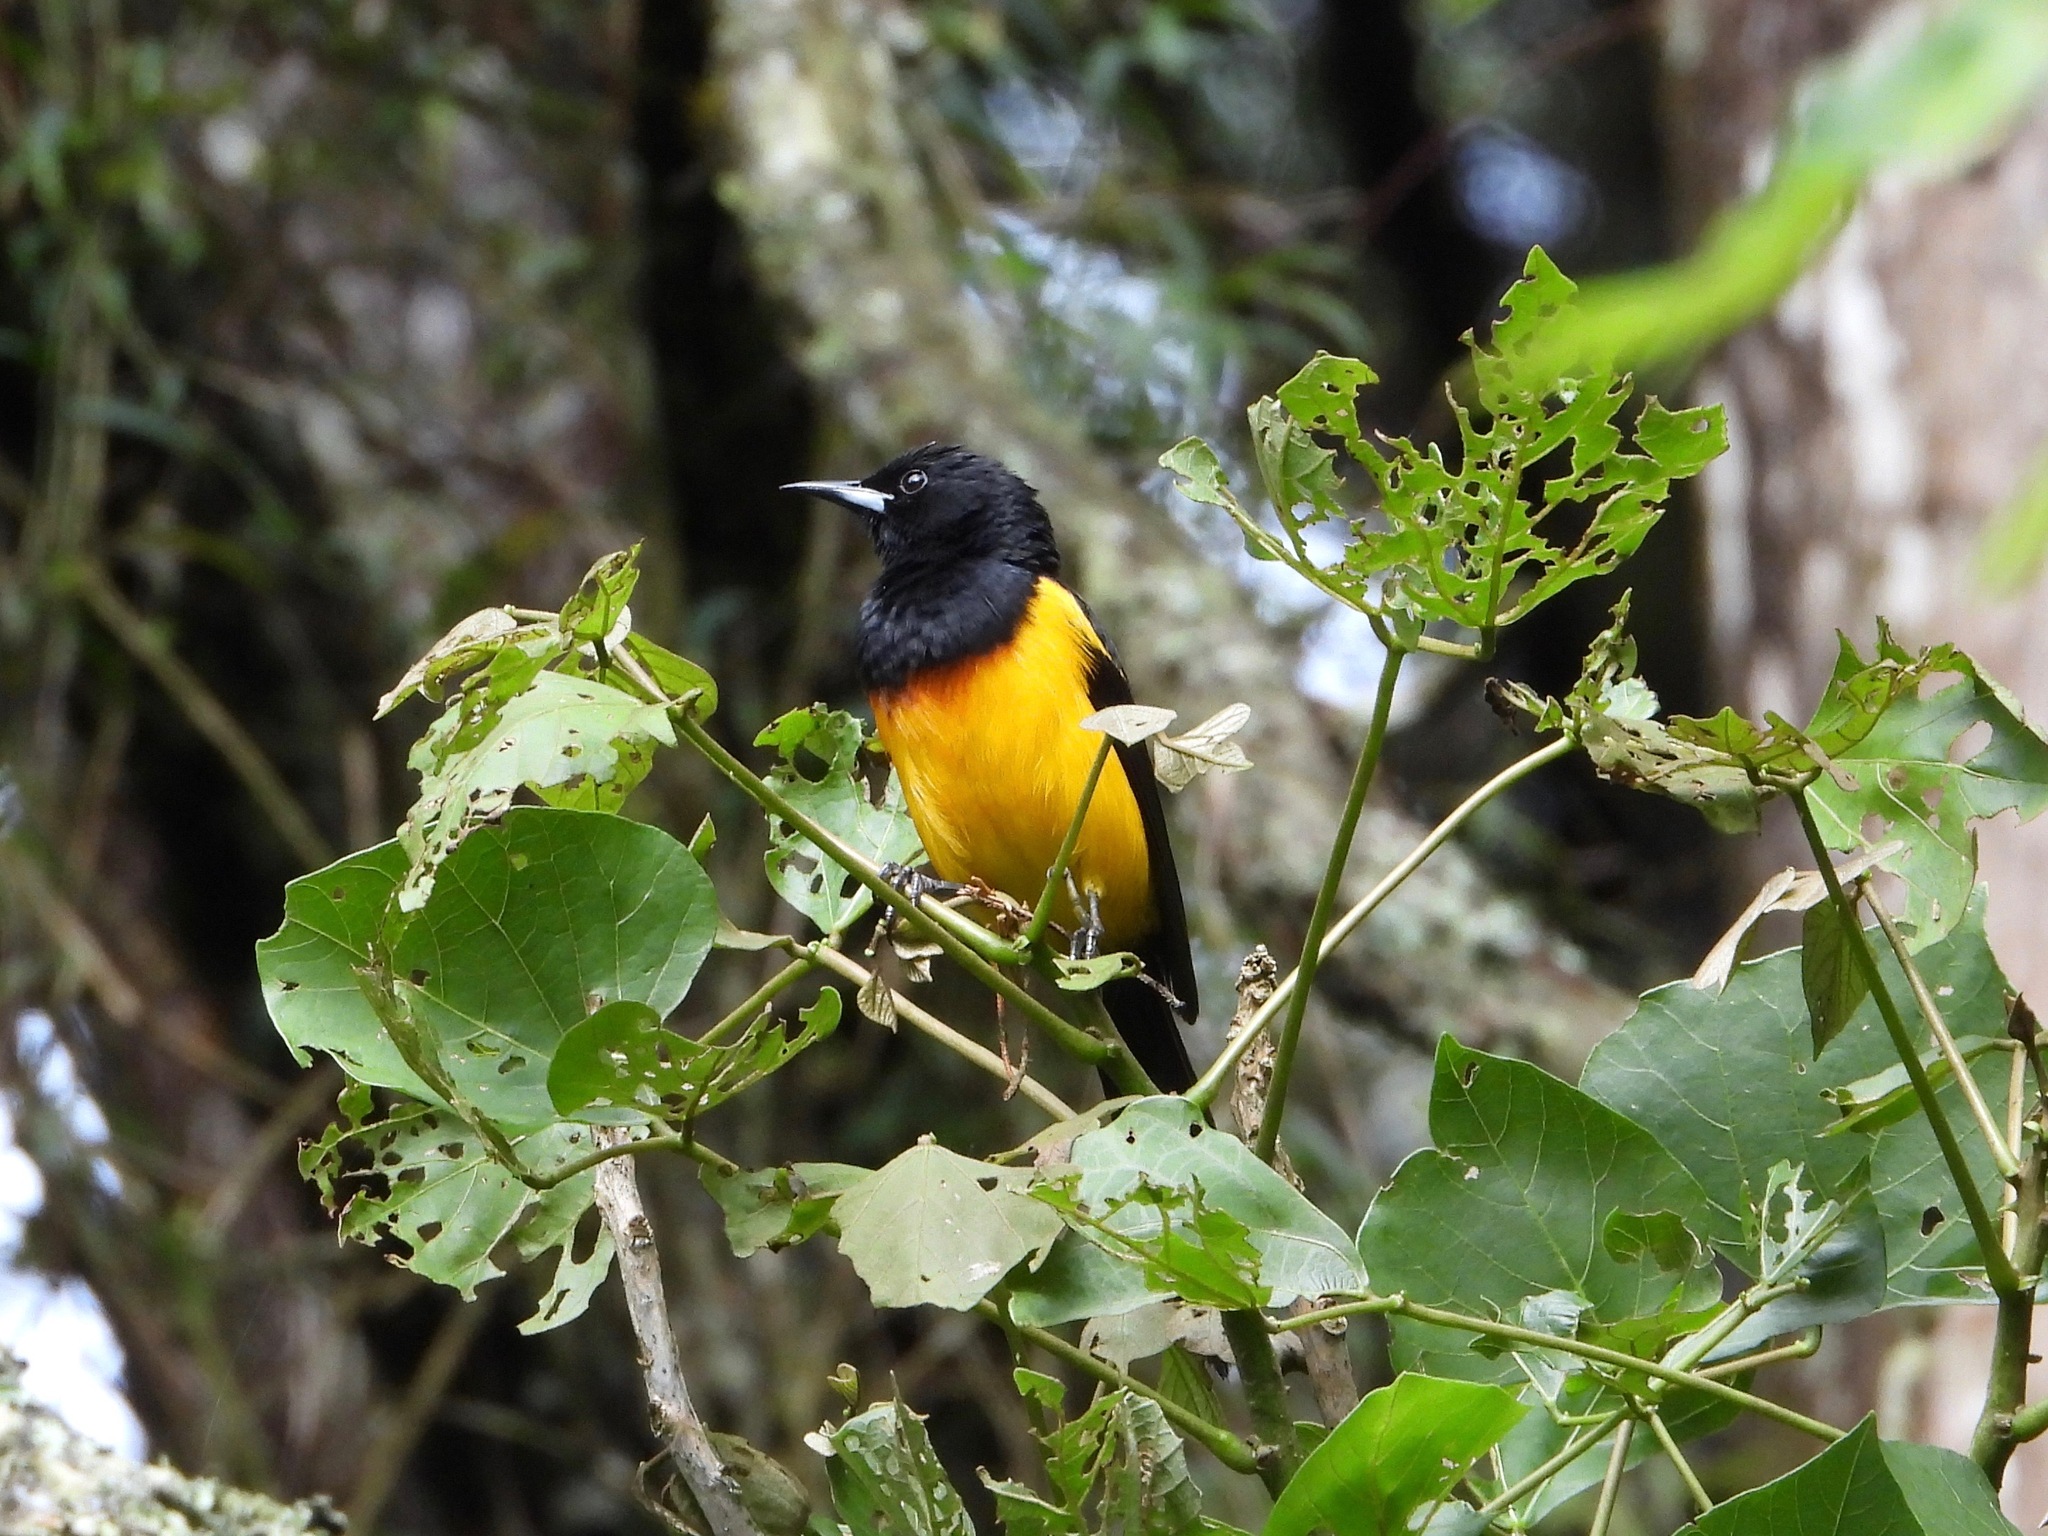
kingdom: Animalia
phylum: Chordata
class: Aves
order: Passeriformes
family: Icteridae
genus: Icterus
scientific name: Icterus wagleri
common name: Black-vented oriole
